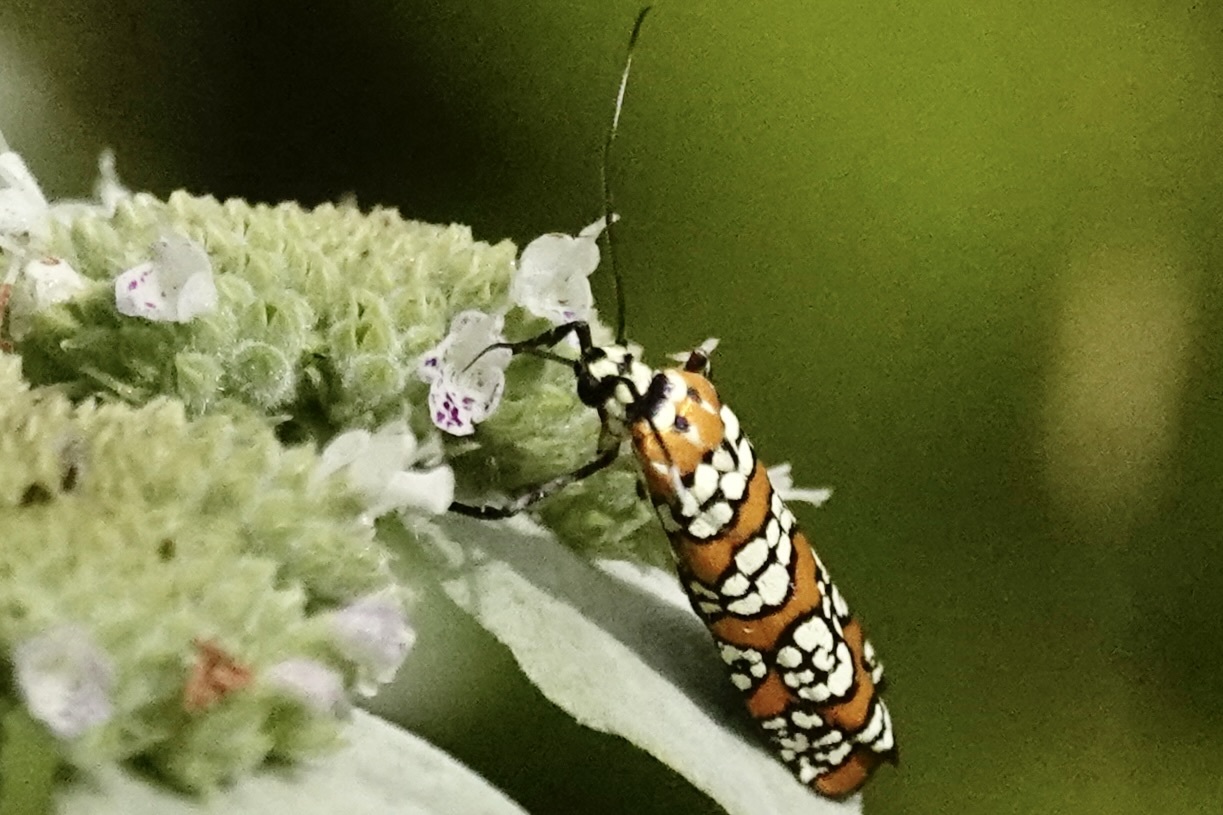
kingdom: Animalia
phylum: Arthropoda
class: Insecta
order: Lepidoptera
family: Attevidae
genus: Atteva
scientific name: Atteva punctella
